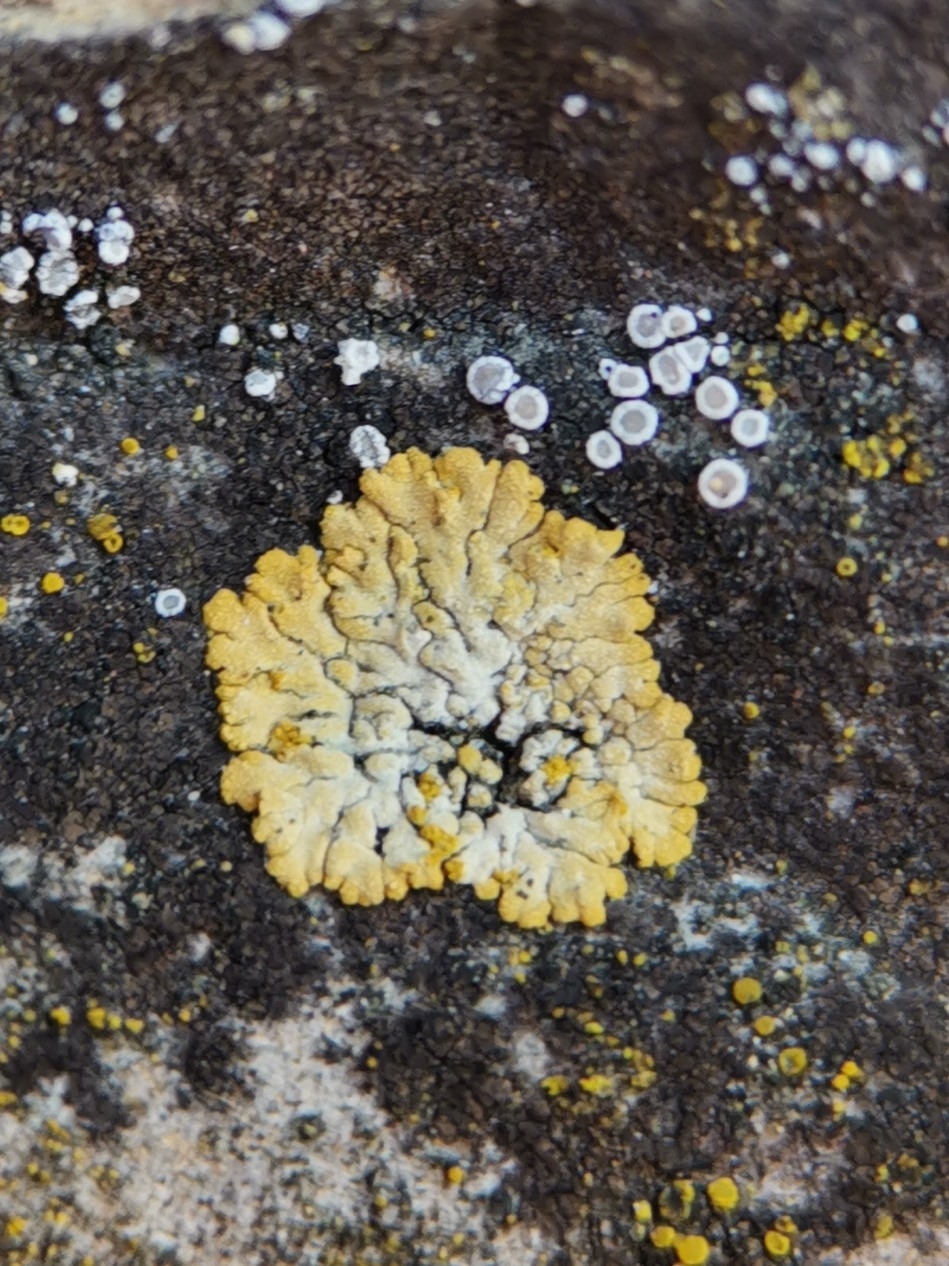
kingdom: Fungi
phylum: Ascomycota
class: Lecanoromycetes
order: Teloschistales
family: Teloschistaceae
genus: Calogaya
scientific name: Calogaya decipiens
